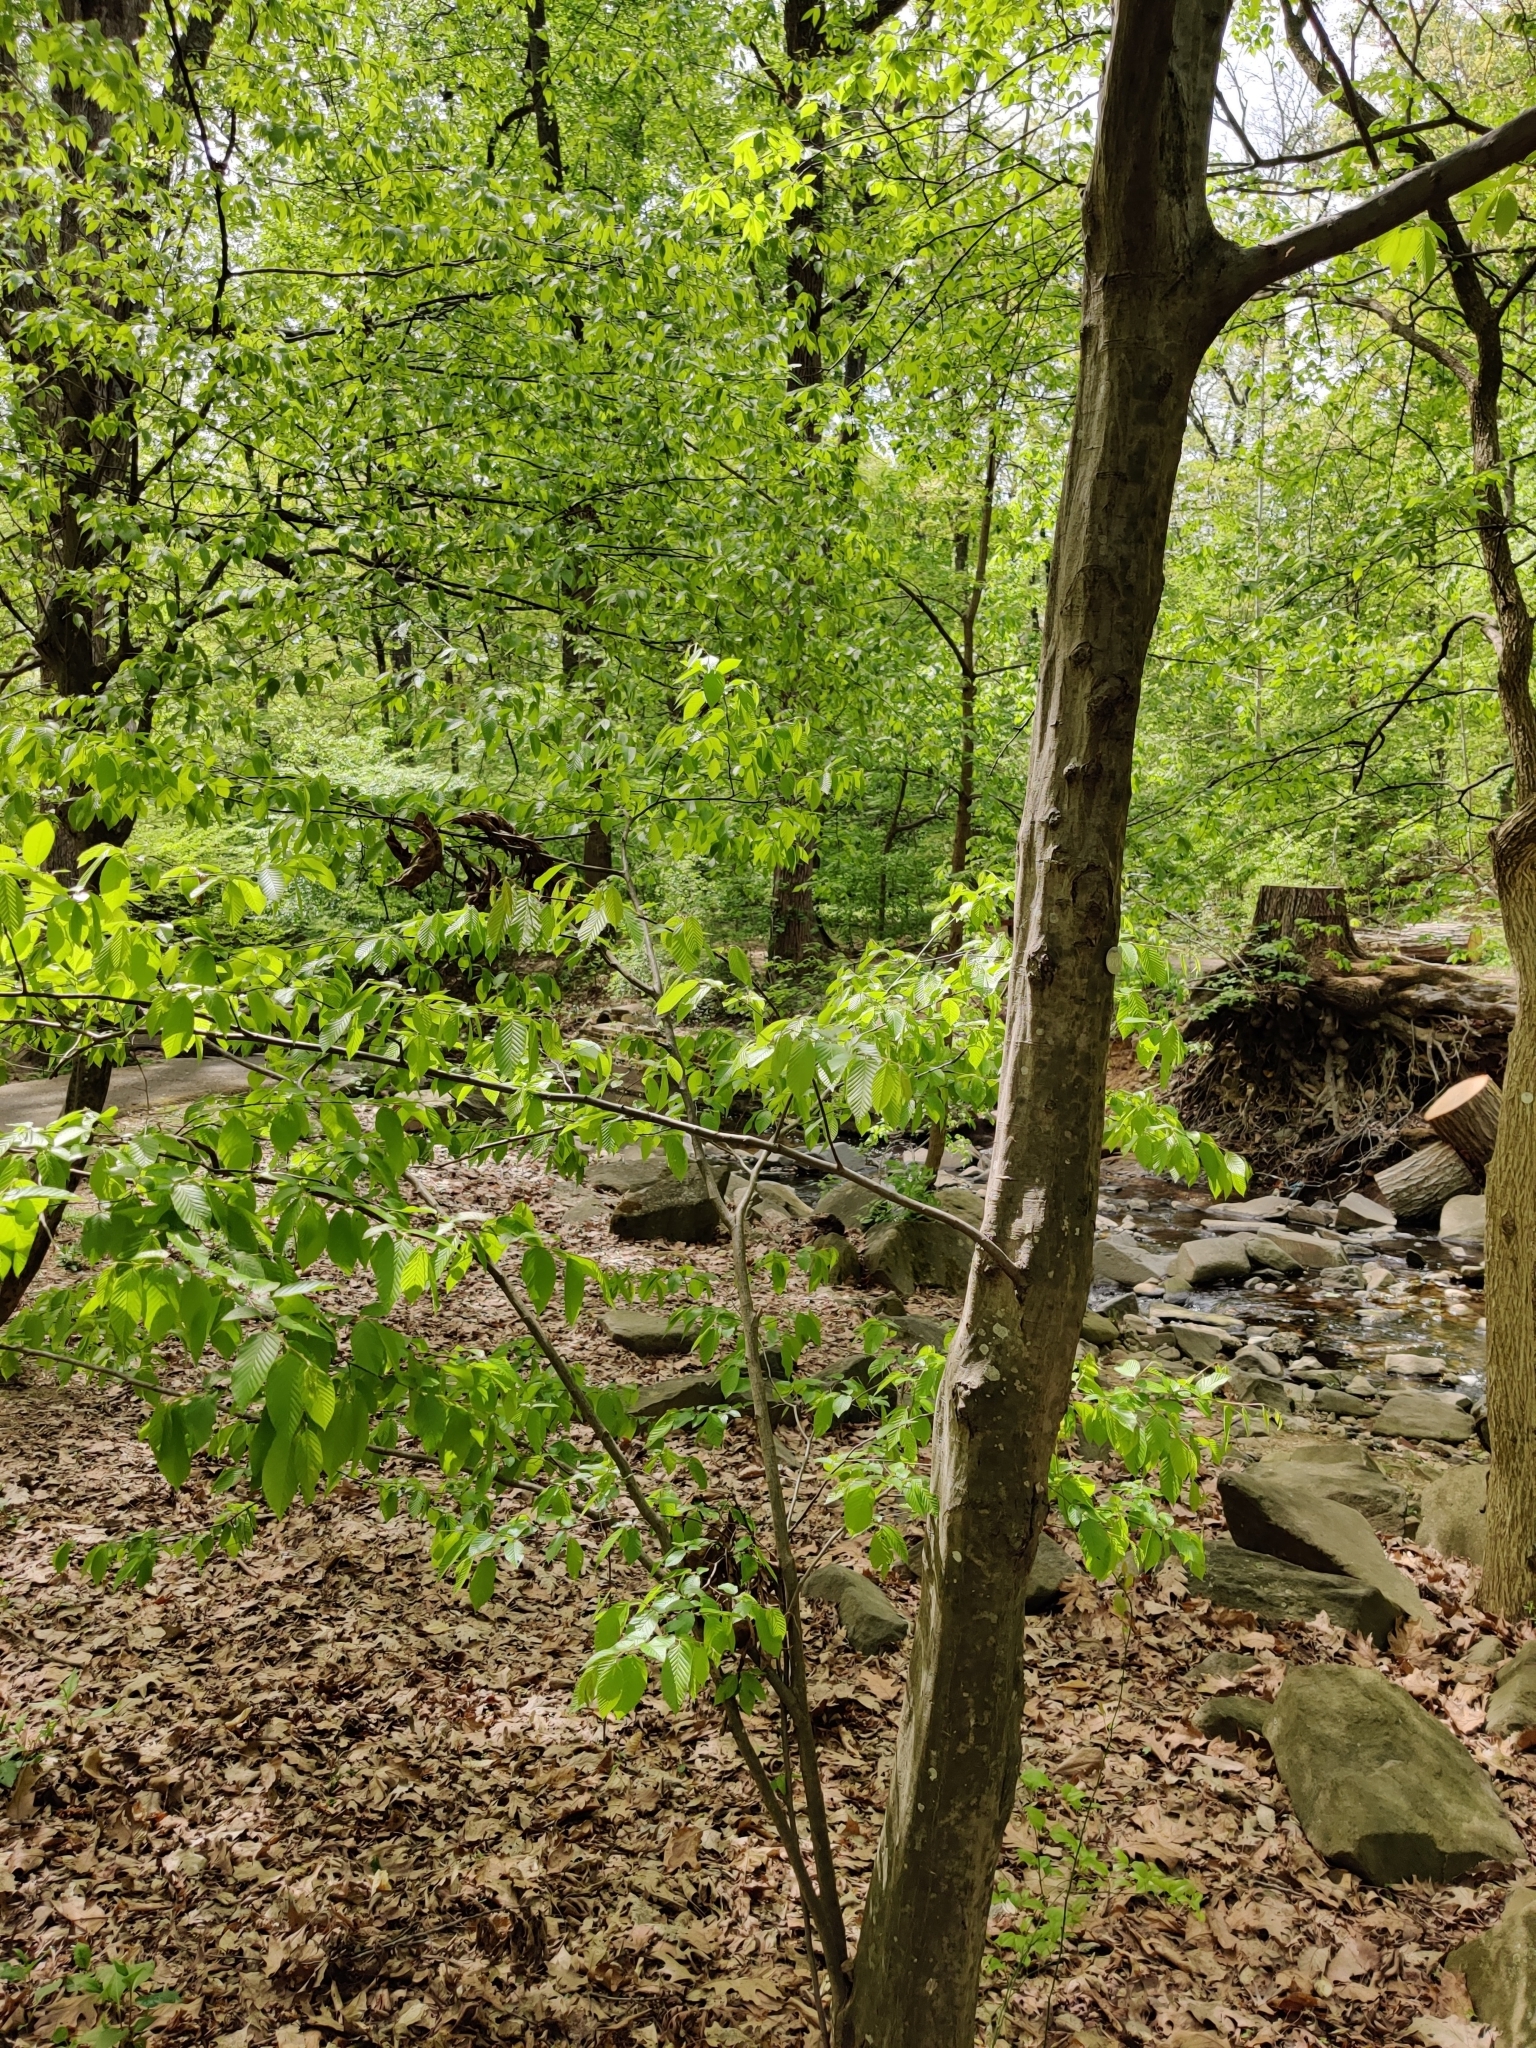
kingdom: Plantae
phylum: Tracheophyta
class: Magnoliopsida
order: Fagales
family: Betulaceae
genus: Carpinus
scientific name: Carpinus caroliniana
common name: American hornbeam
